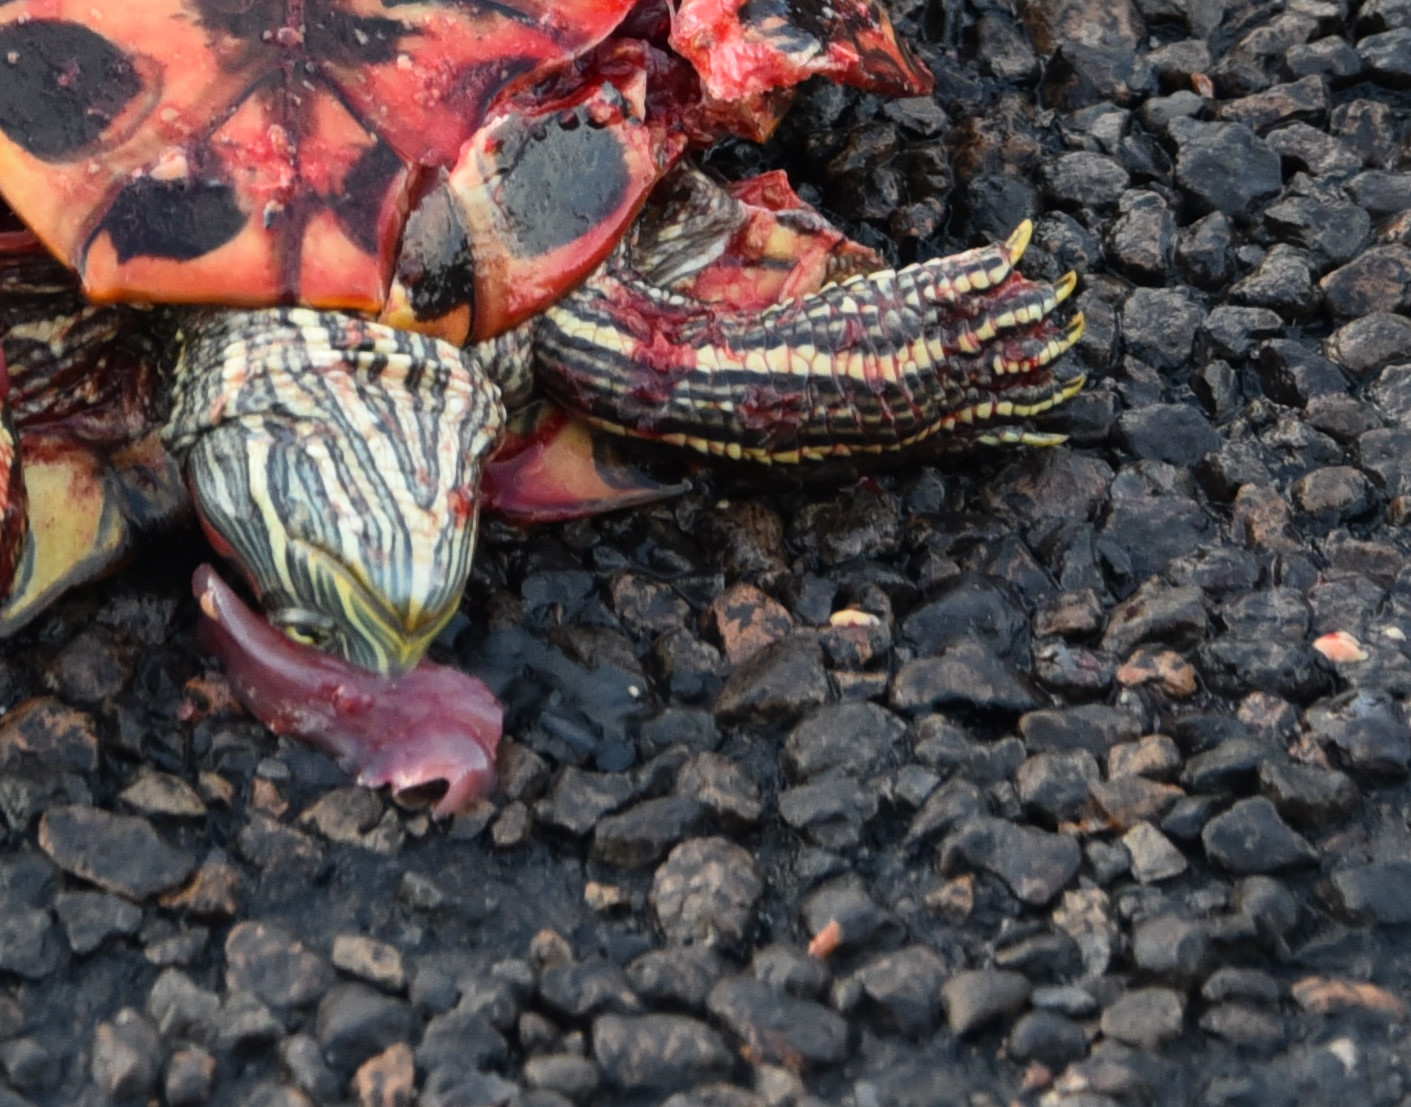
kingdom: Animalia
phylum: Chordata
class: Testudines
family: Emydidae
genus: Trachemys
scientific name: Trachemys scripta
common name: Slider
